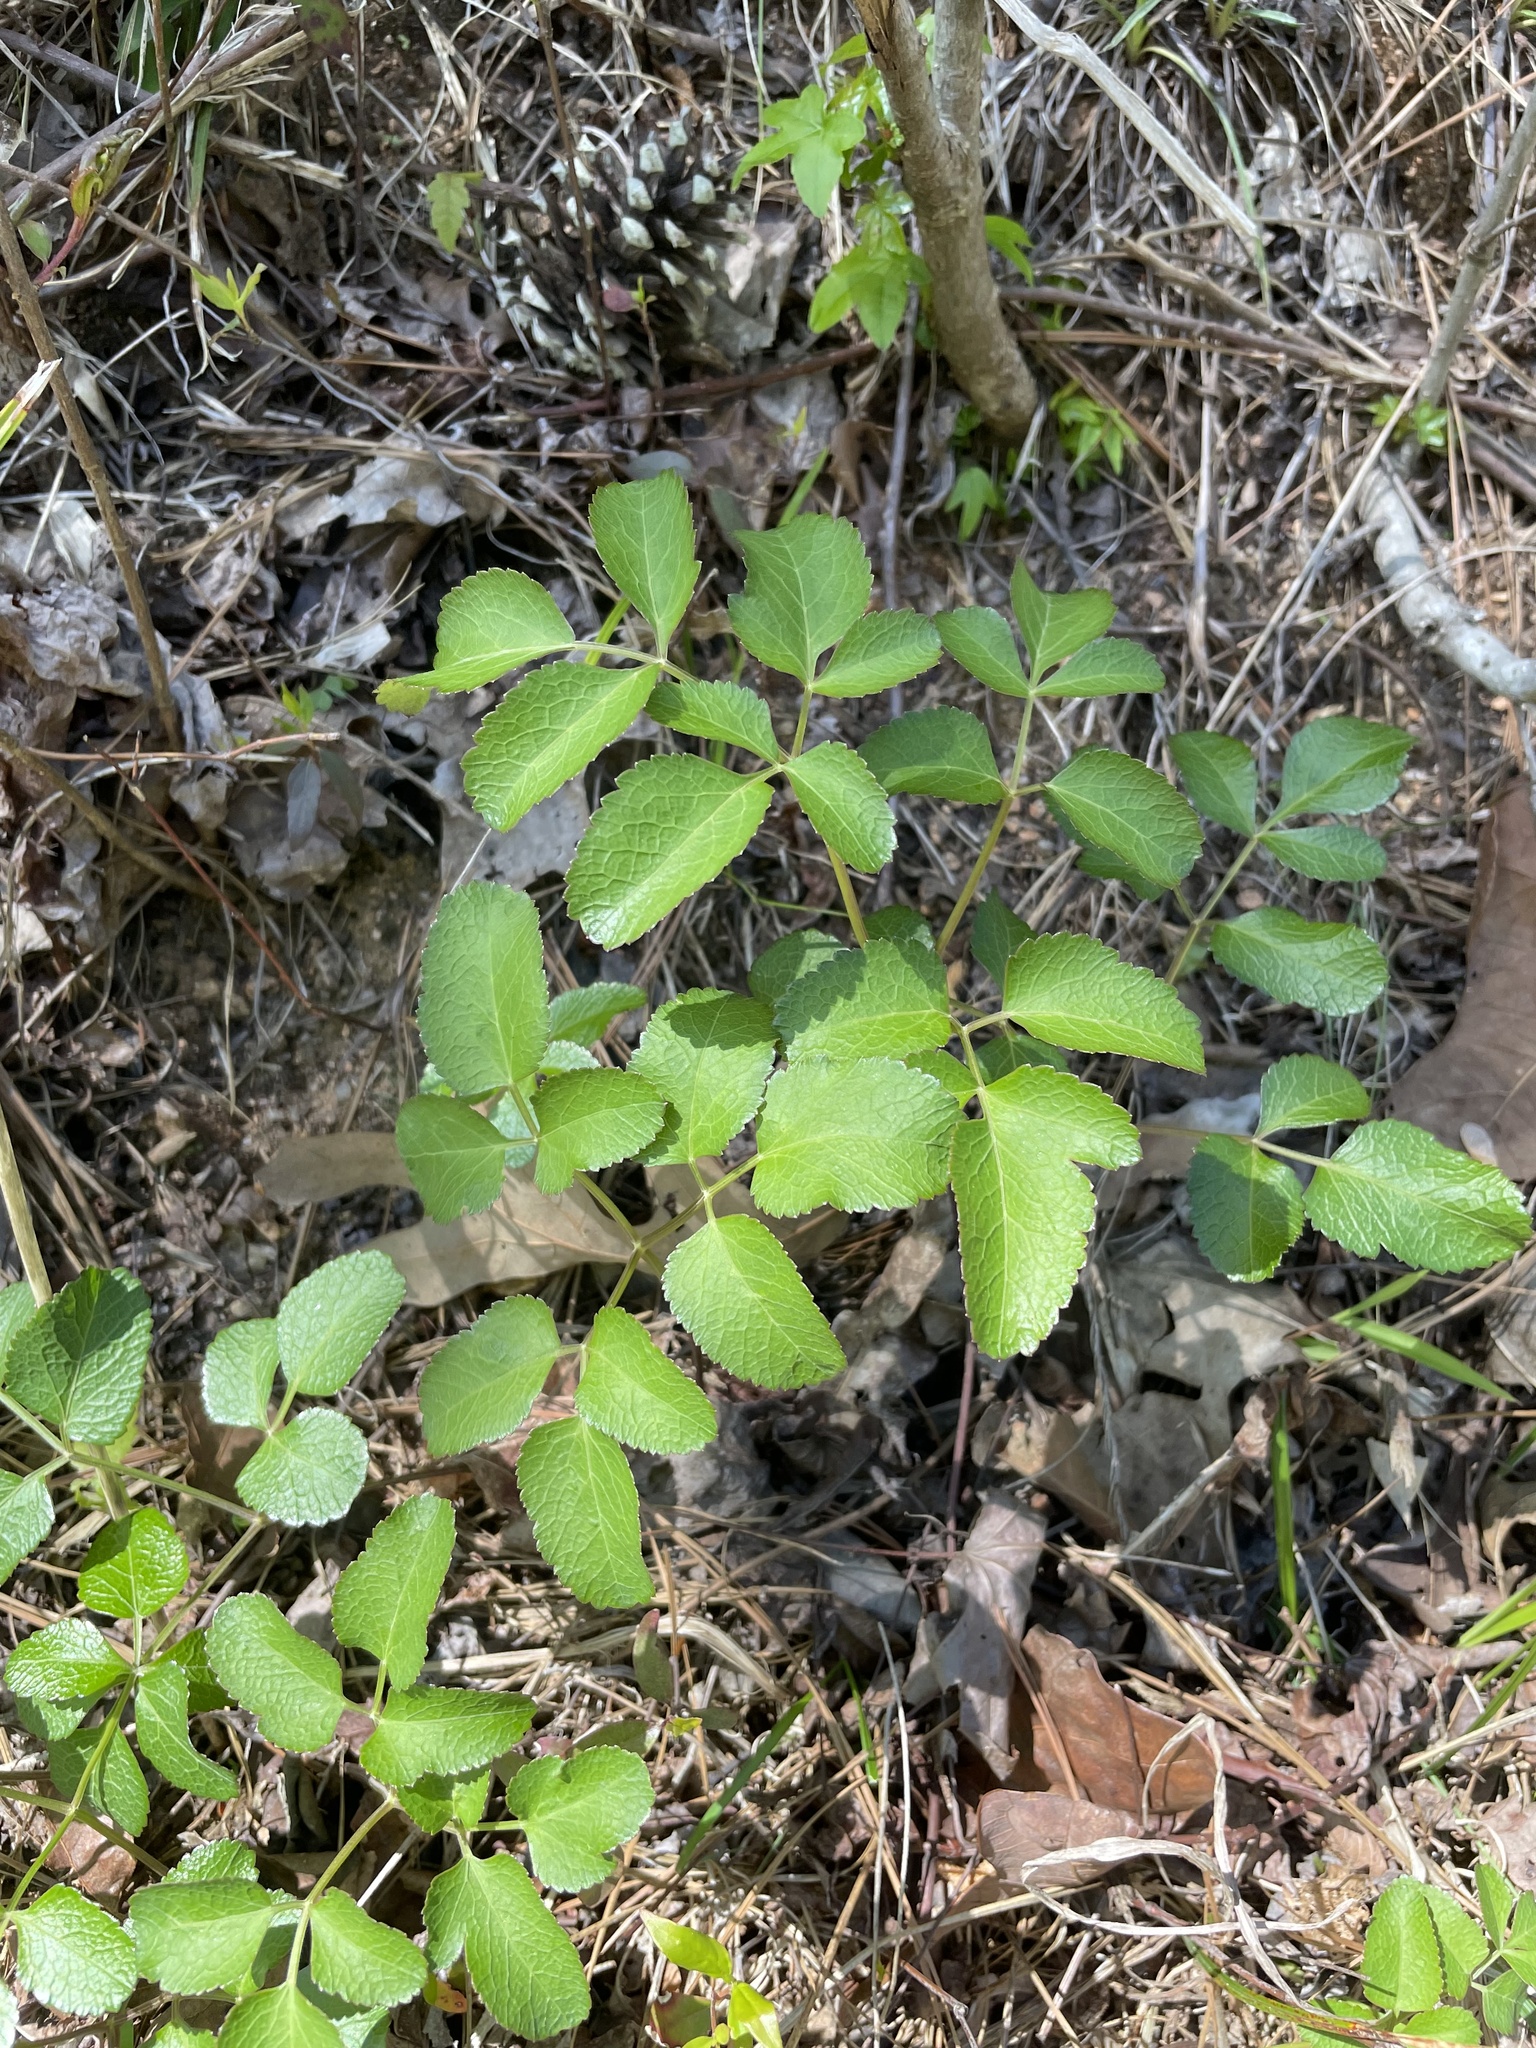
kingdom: Plantae
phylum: Tracheophyta
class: Magnoliopsida
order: Apiales
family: Apiaceae
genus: Angelica
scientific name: Angelica venenosa
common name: Hairy angelica
